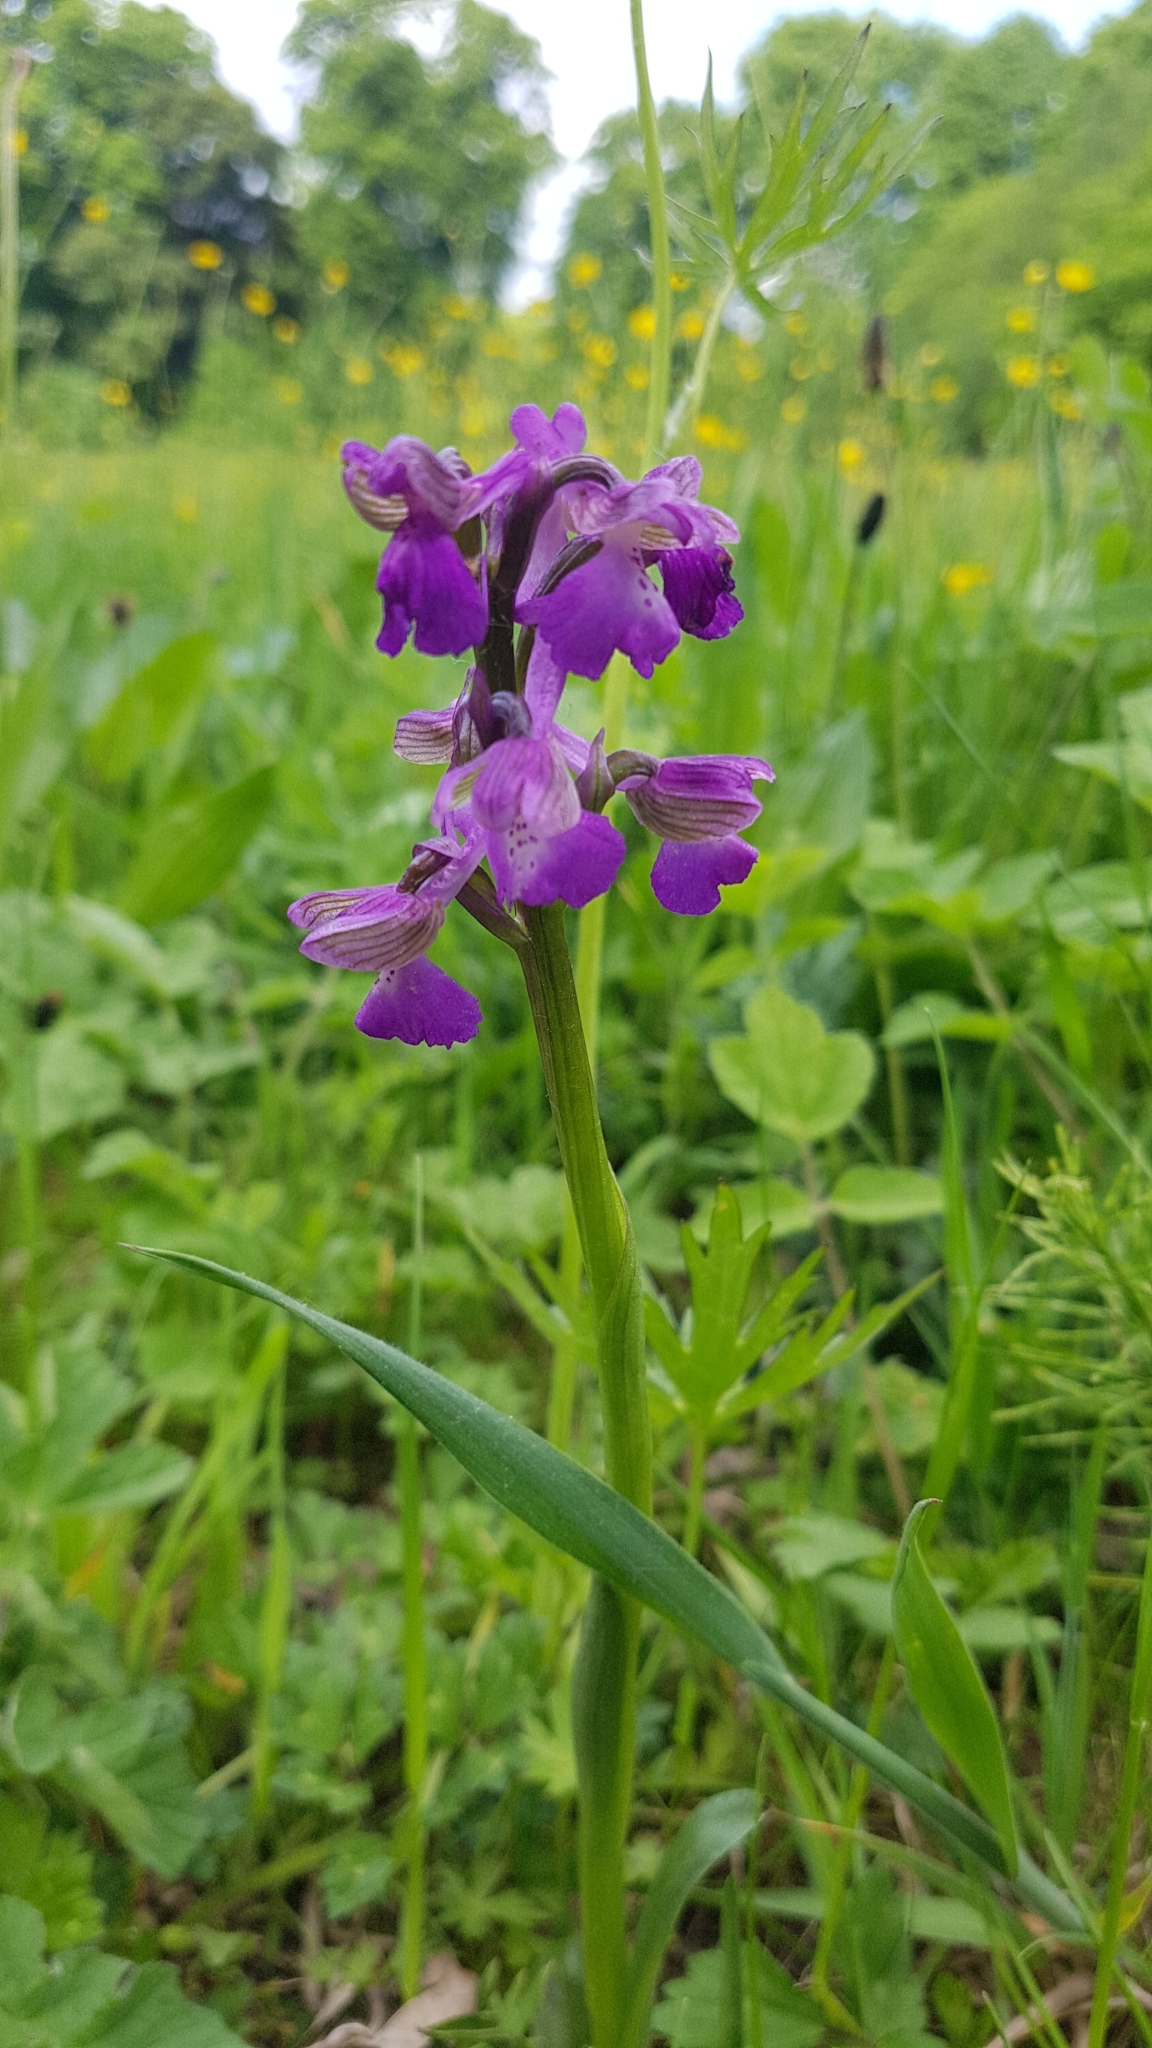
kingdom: Plantae
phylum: Tracheophyta
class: Liliopsida
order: Asparagales
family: Orchidaceae
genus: Anacamptis
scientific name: Anacamptis morio
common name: Green-winged orchid
